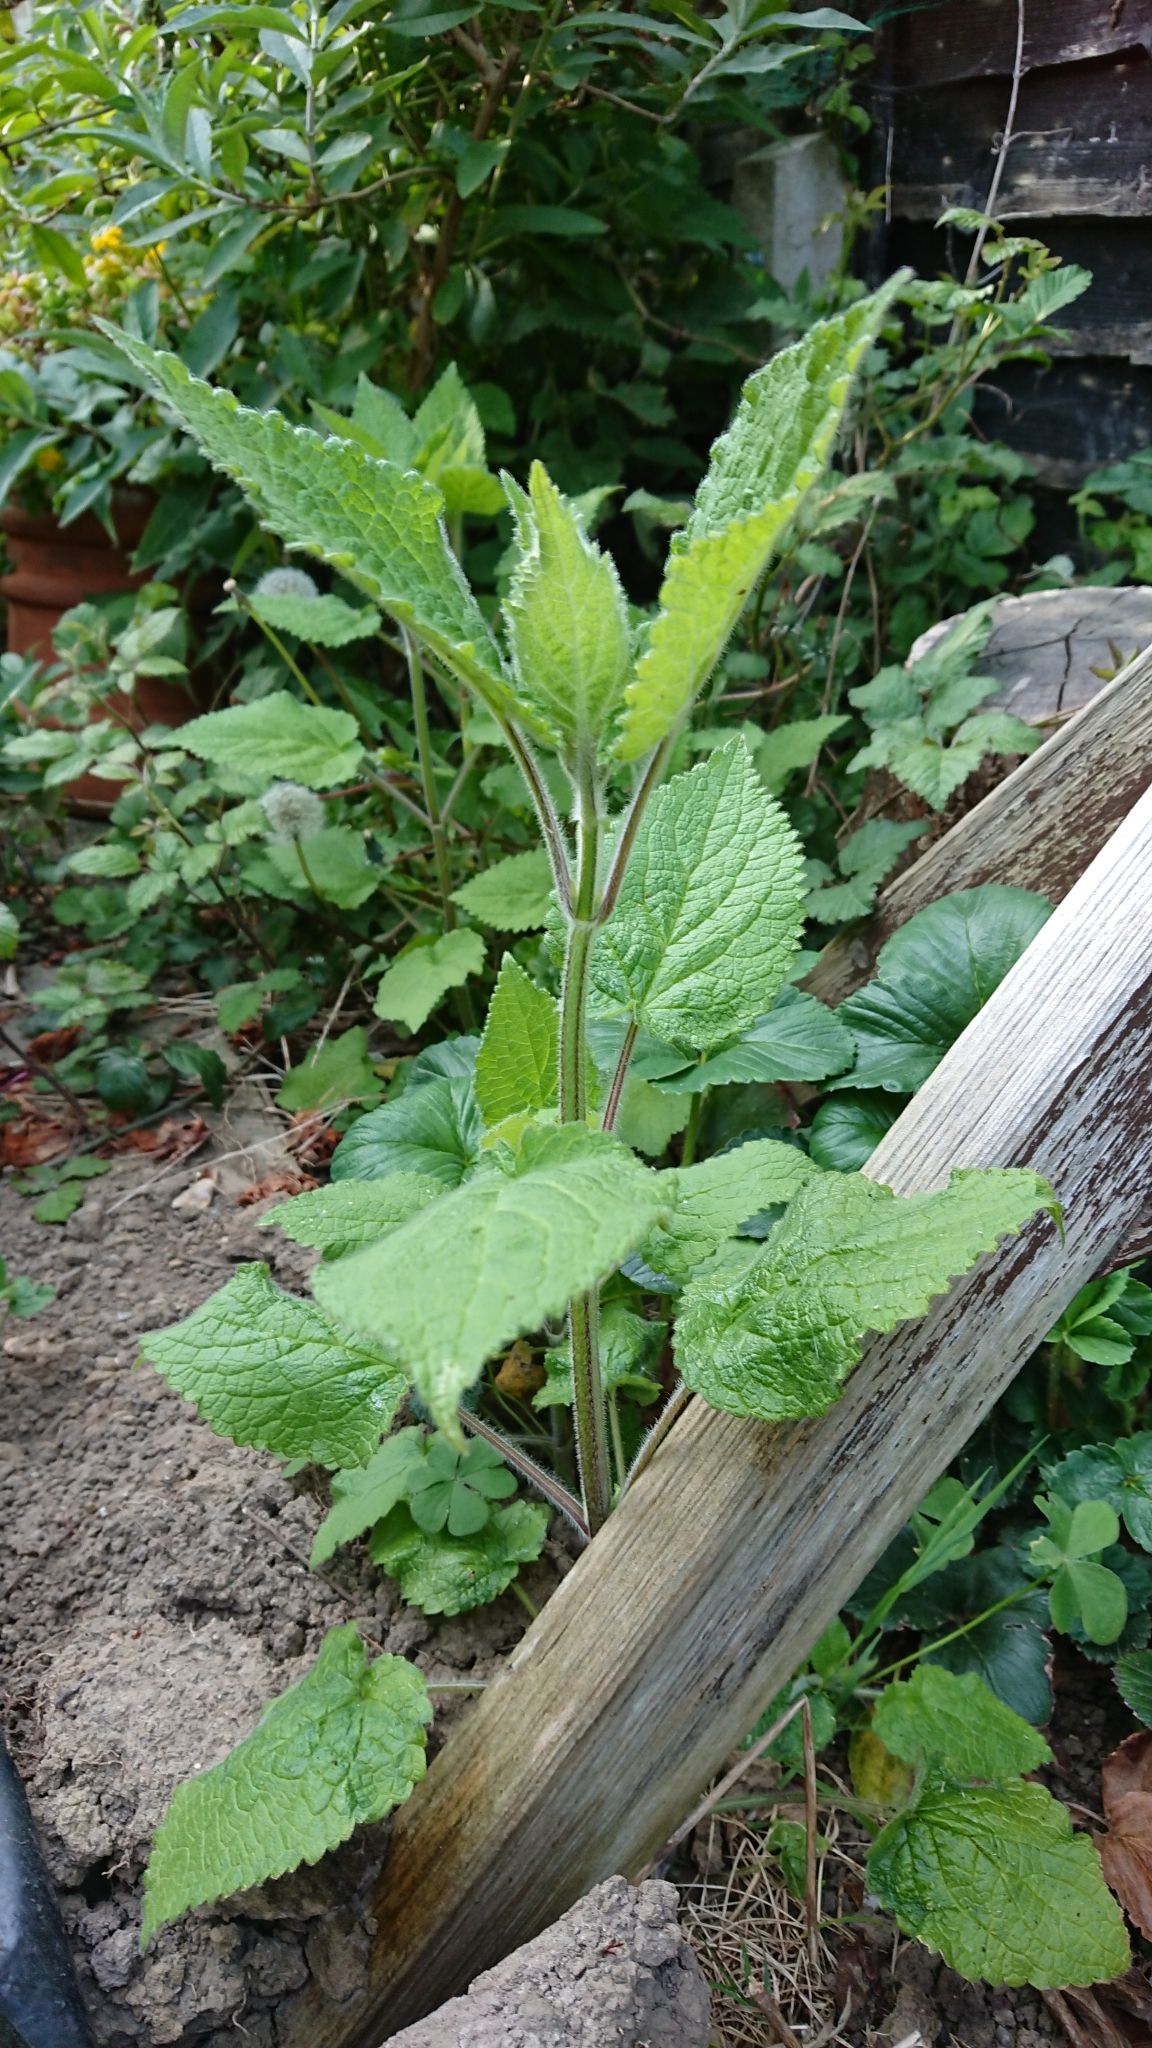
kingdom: Plantae
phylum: Tracheophyta
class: Magnoliopsida
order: Lamiales
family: Lamiaceae
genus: Stachys
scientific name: Stachys sylvatica
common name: Hedge woundwort
